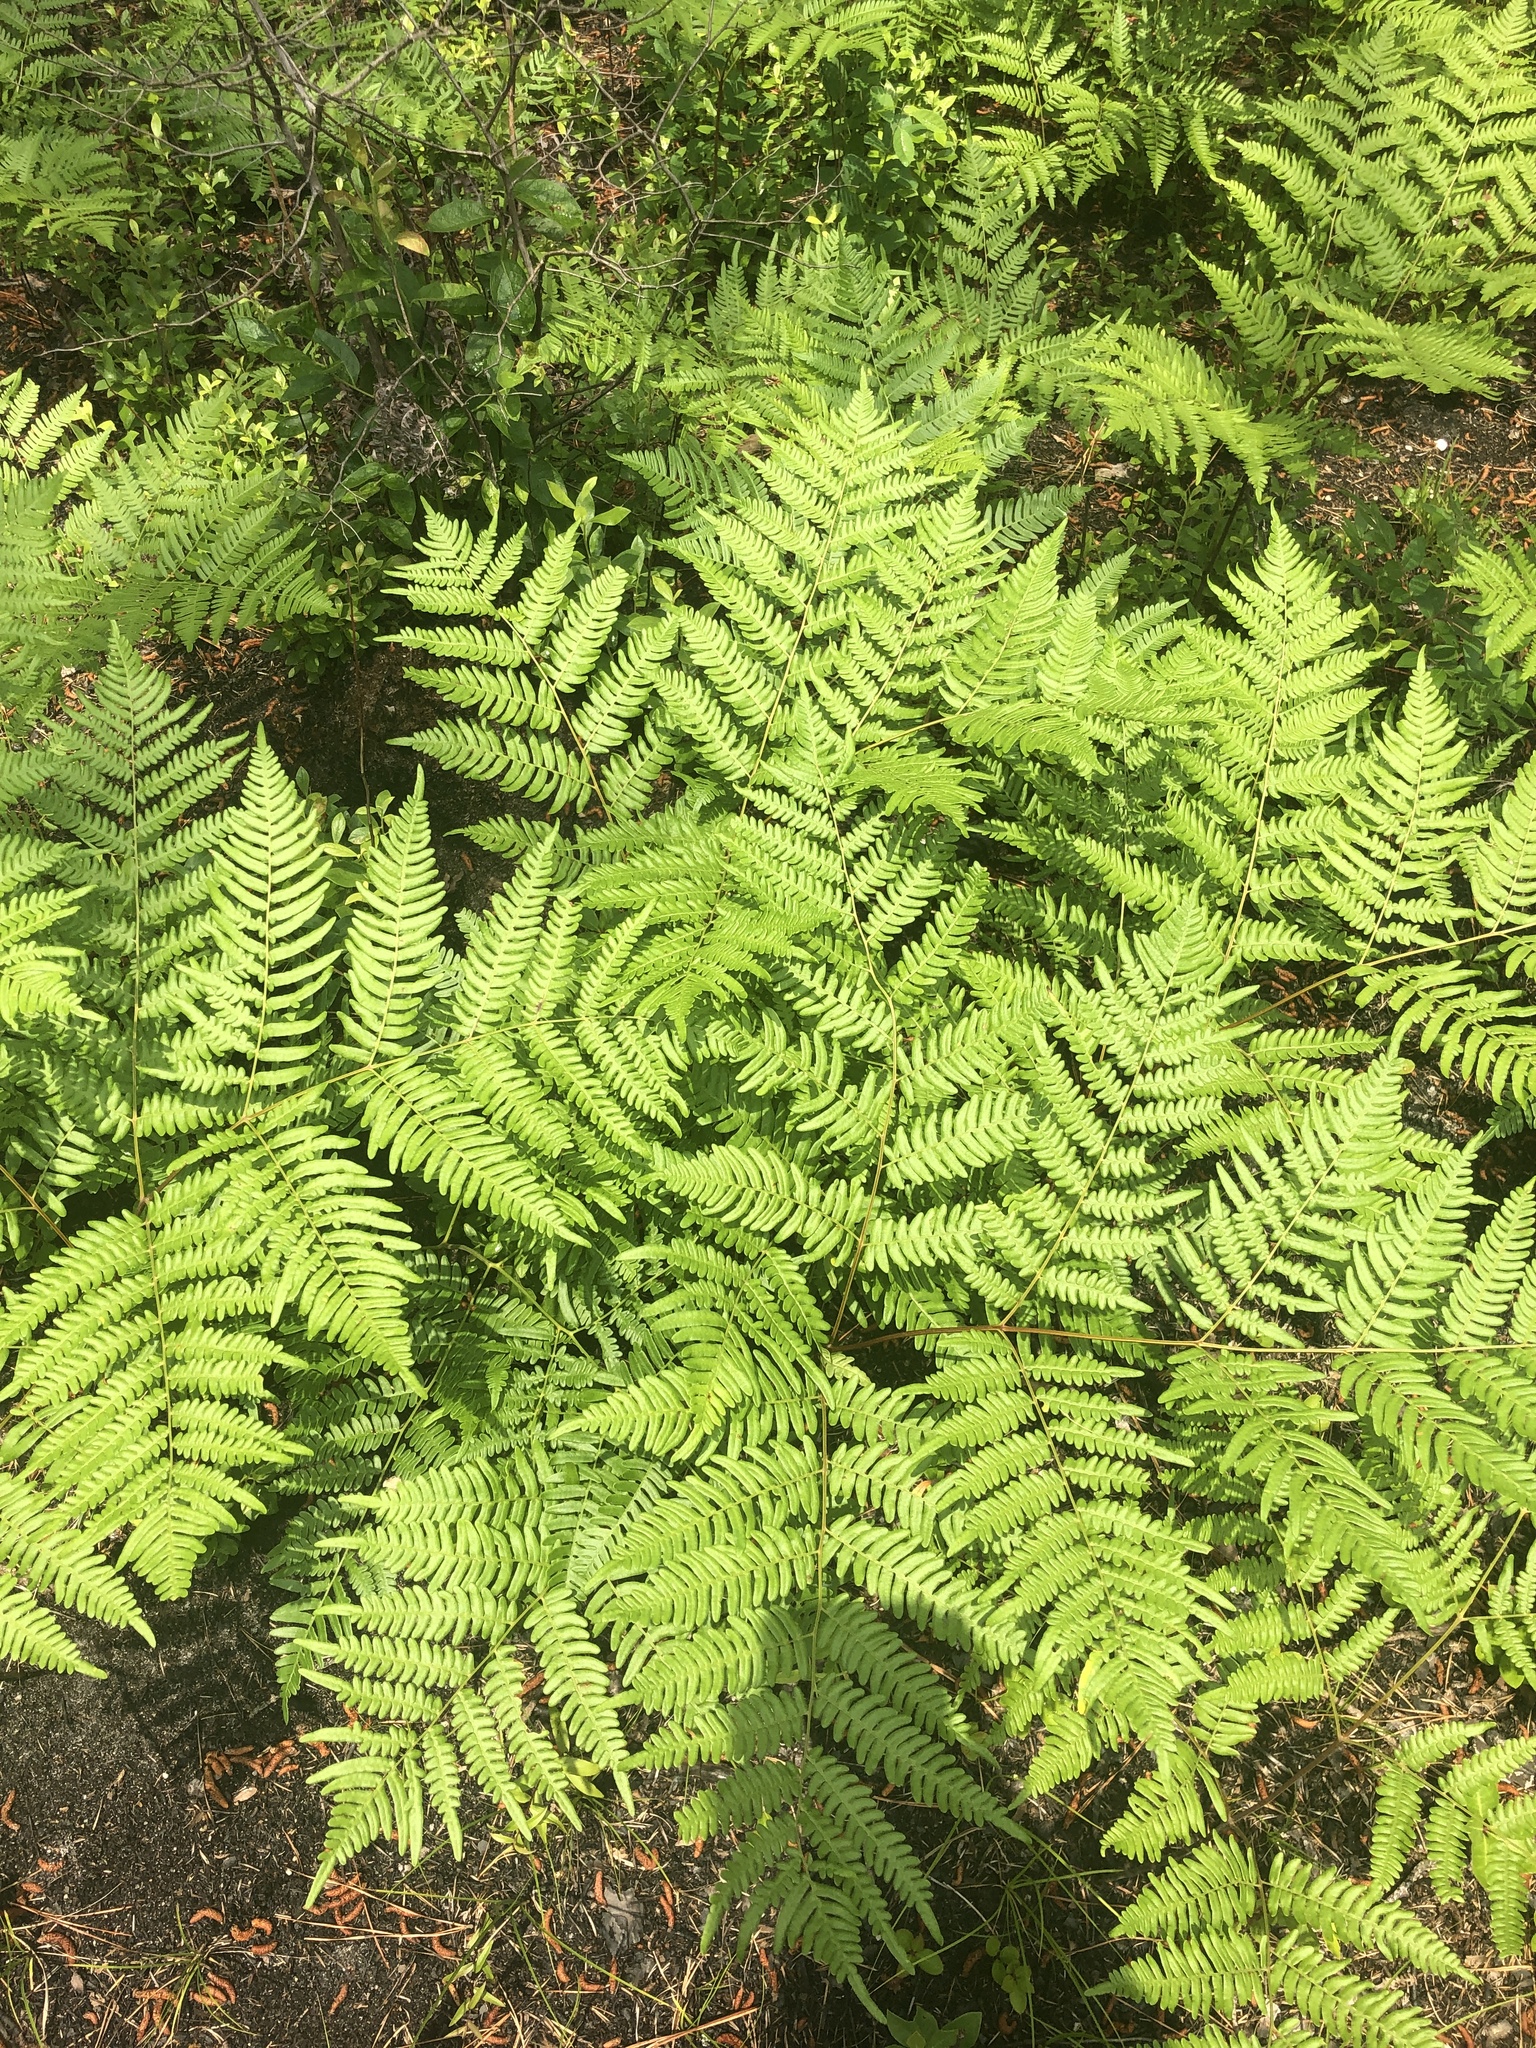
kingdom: Plantae
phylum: Tracheophyta
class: Polypodiopsida
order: Polypodiales
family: Dennstaedtiaceae
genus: Pteridium
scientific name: Pteridium aquilinum
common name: Bracken
